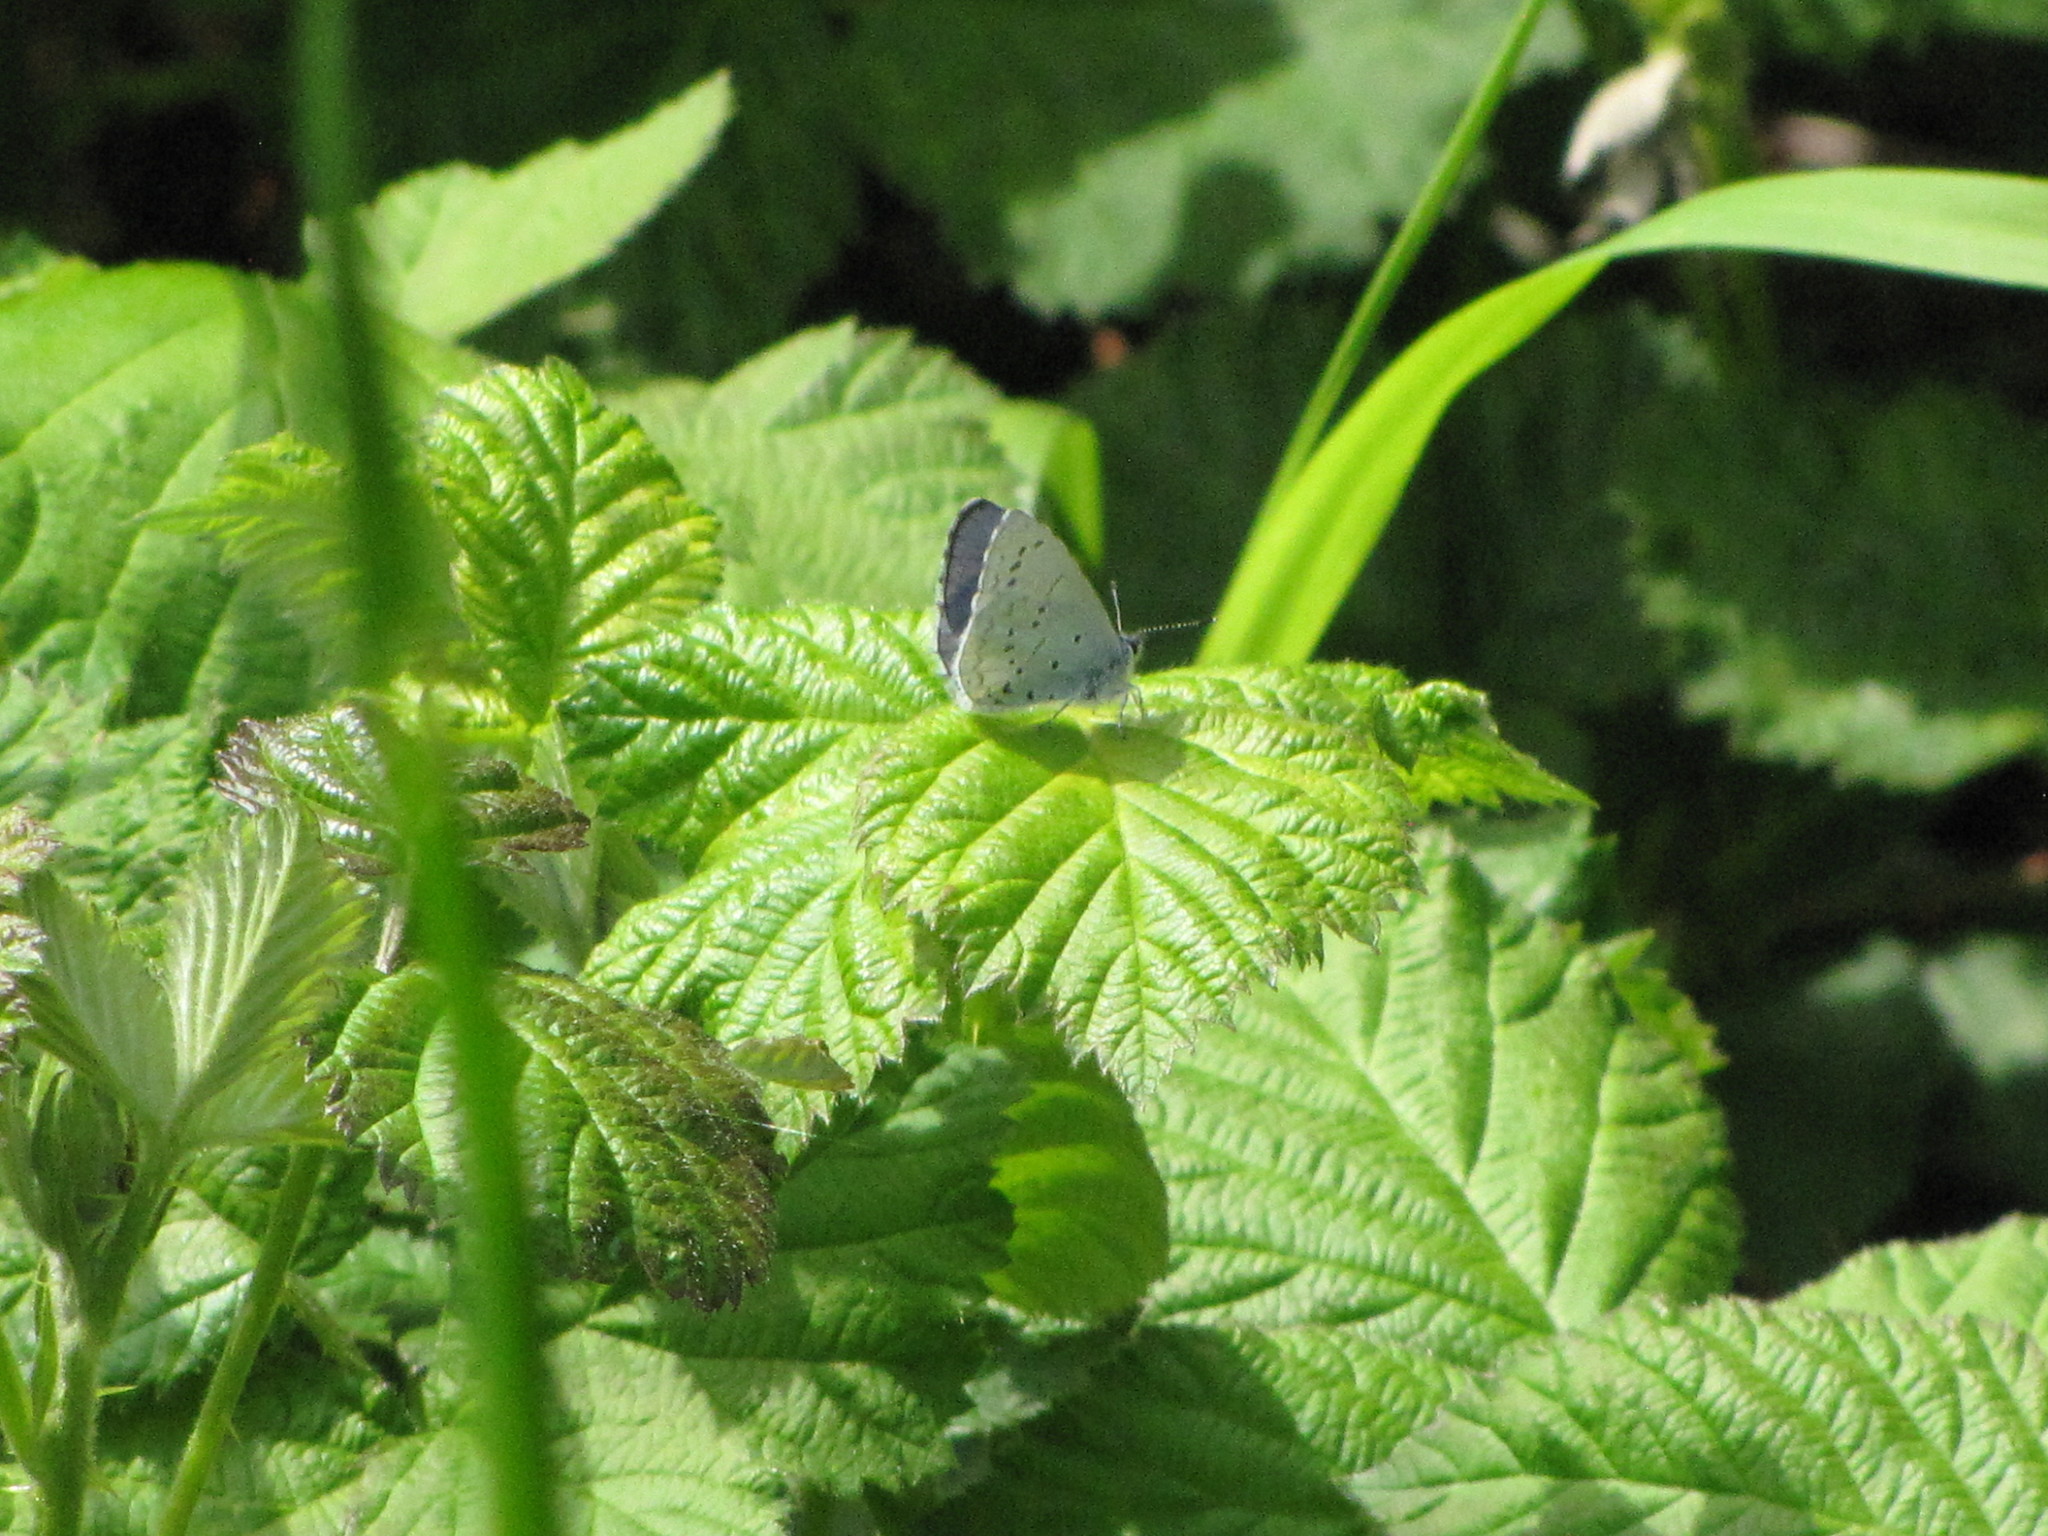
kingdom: Animalia
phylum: Arthropoda
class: Insecta
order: Lepidoptera
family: Lycaenidae
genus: Celastrina
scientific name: Celastrina ladon
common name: Spring azure
